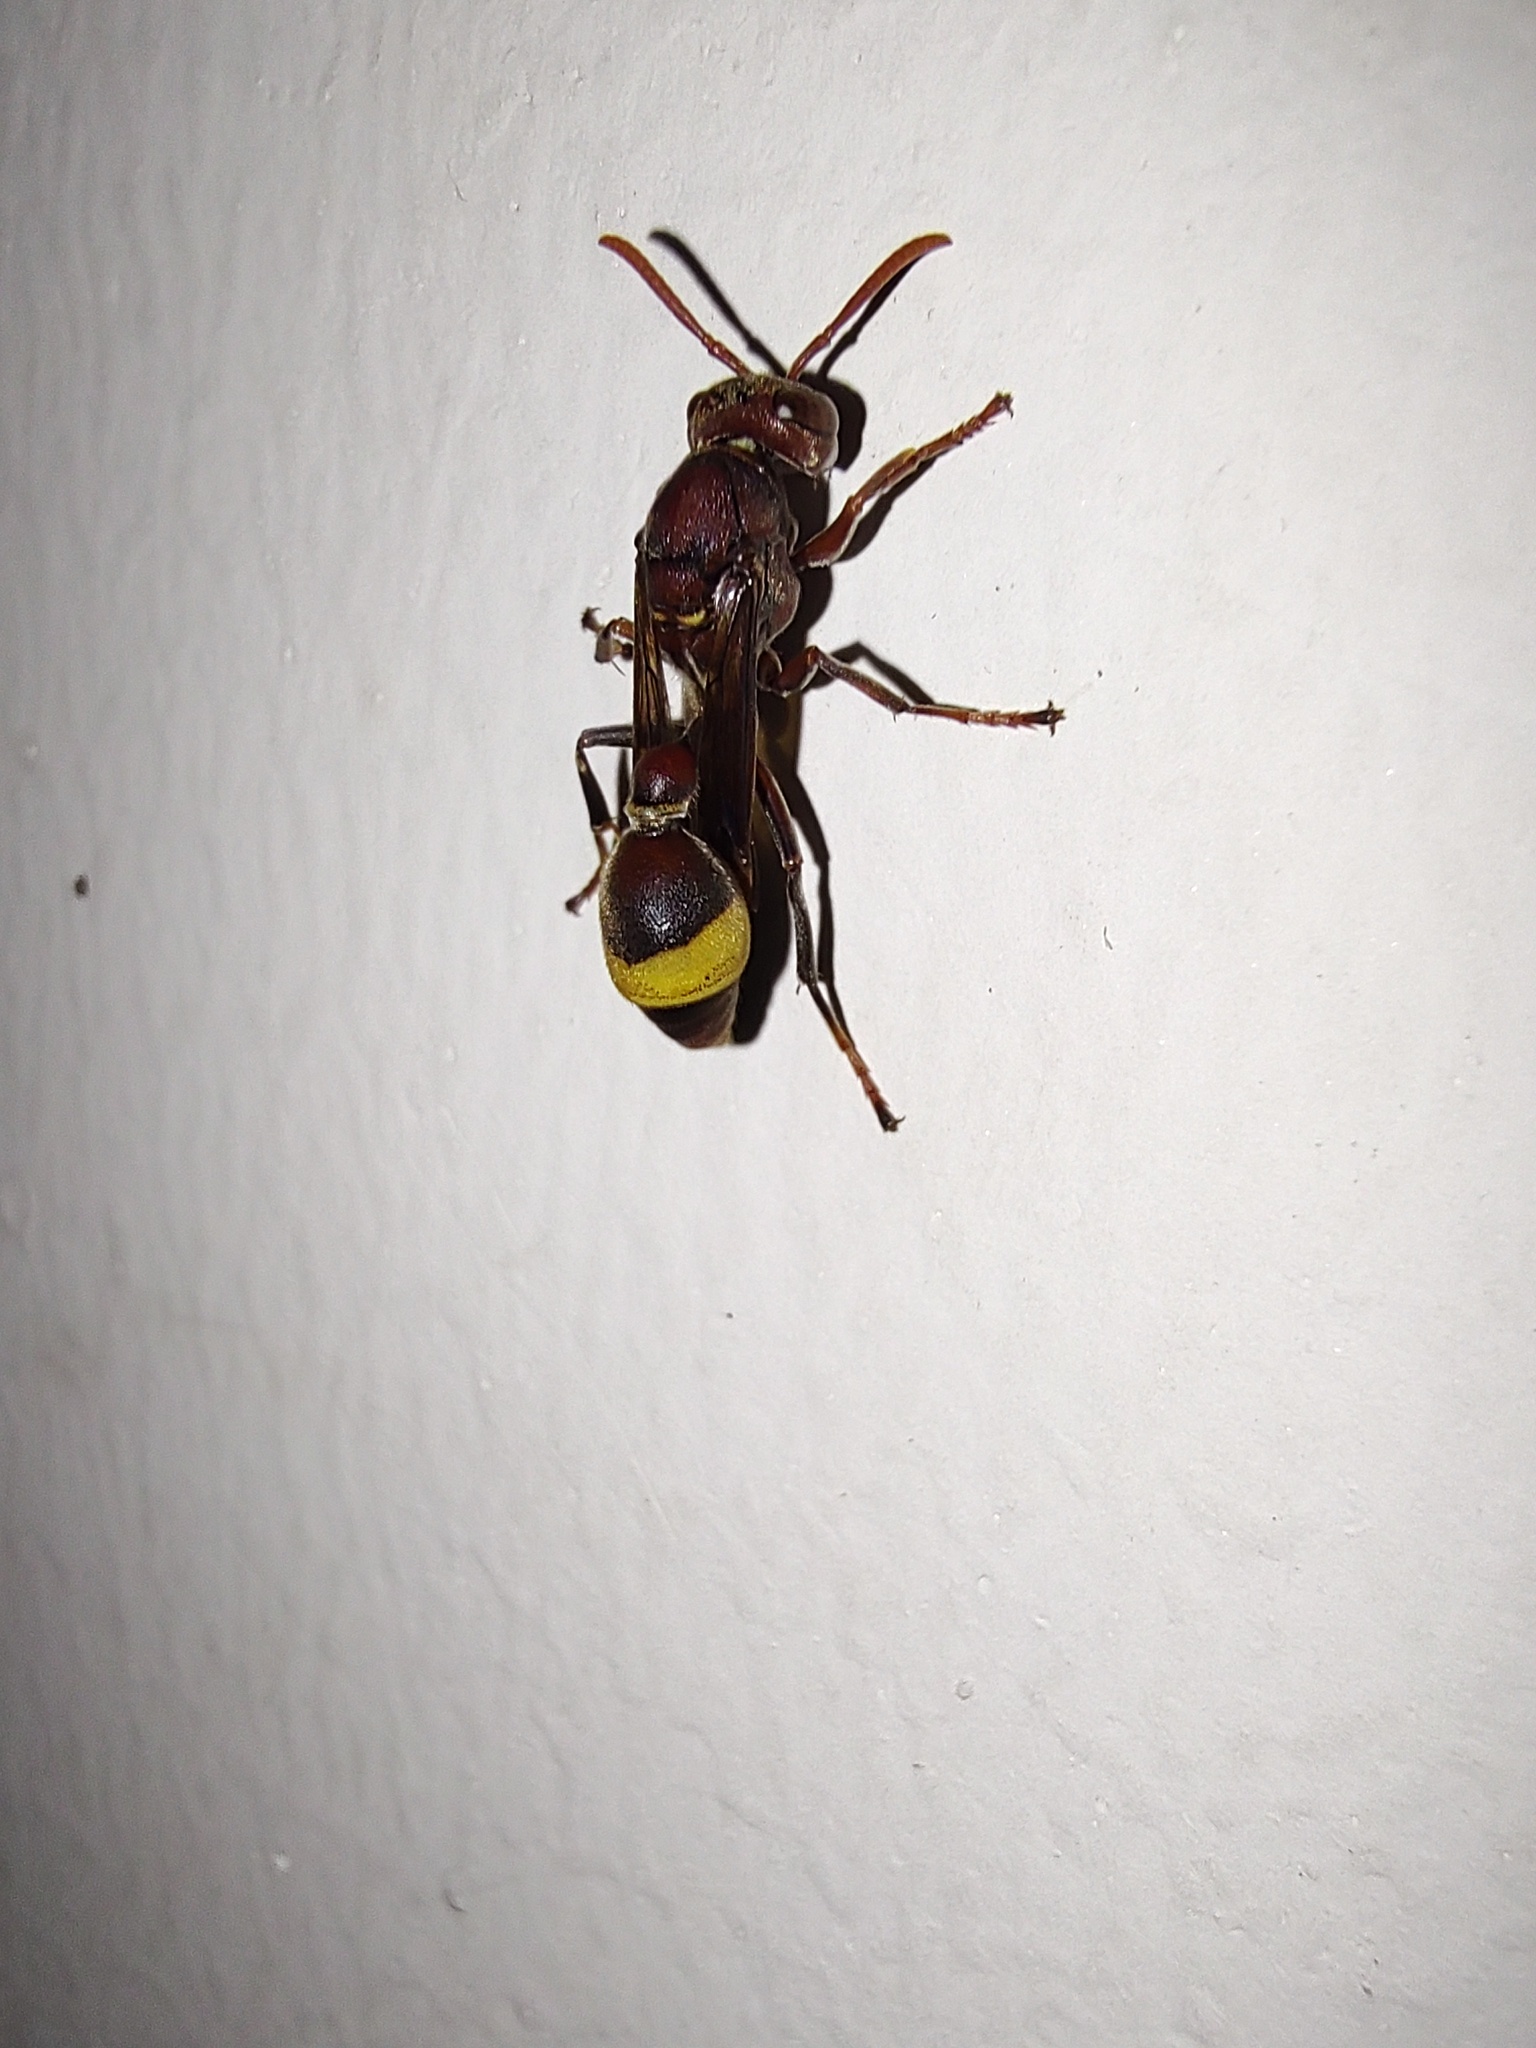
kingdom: Animalia
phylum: Arthropoda
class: Insecta
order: Hymenoptera
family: Vespidae
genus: Ropalidia
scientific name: Ropalidia
